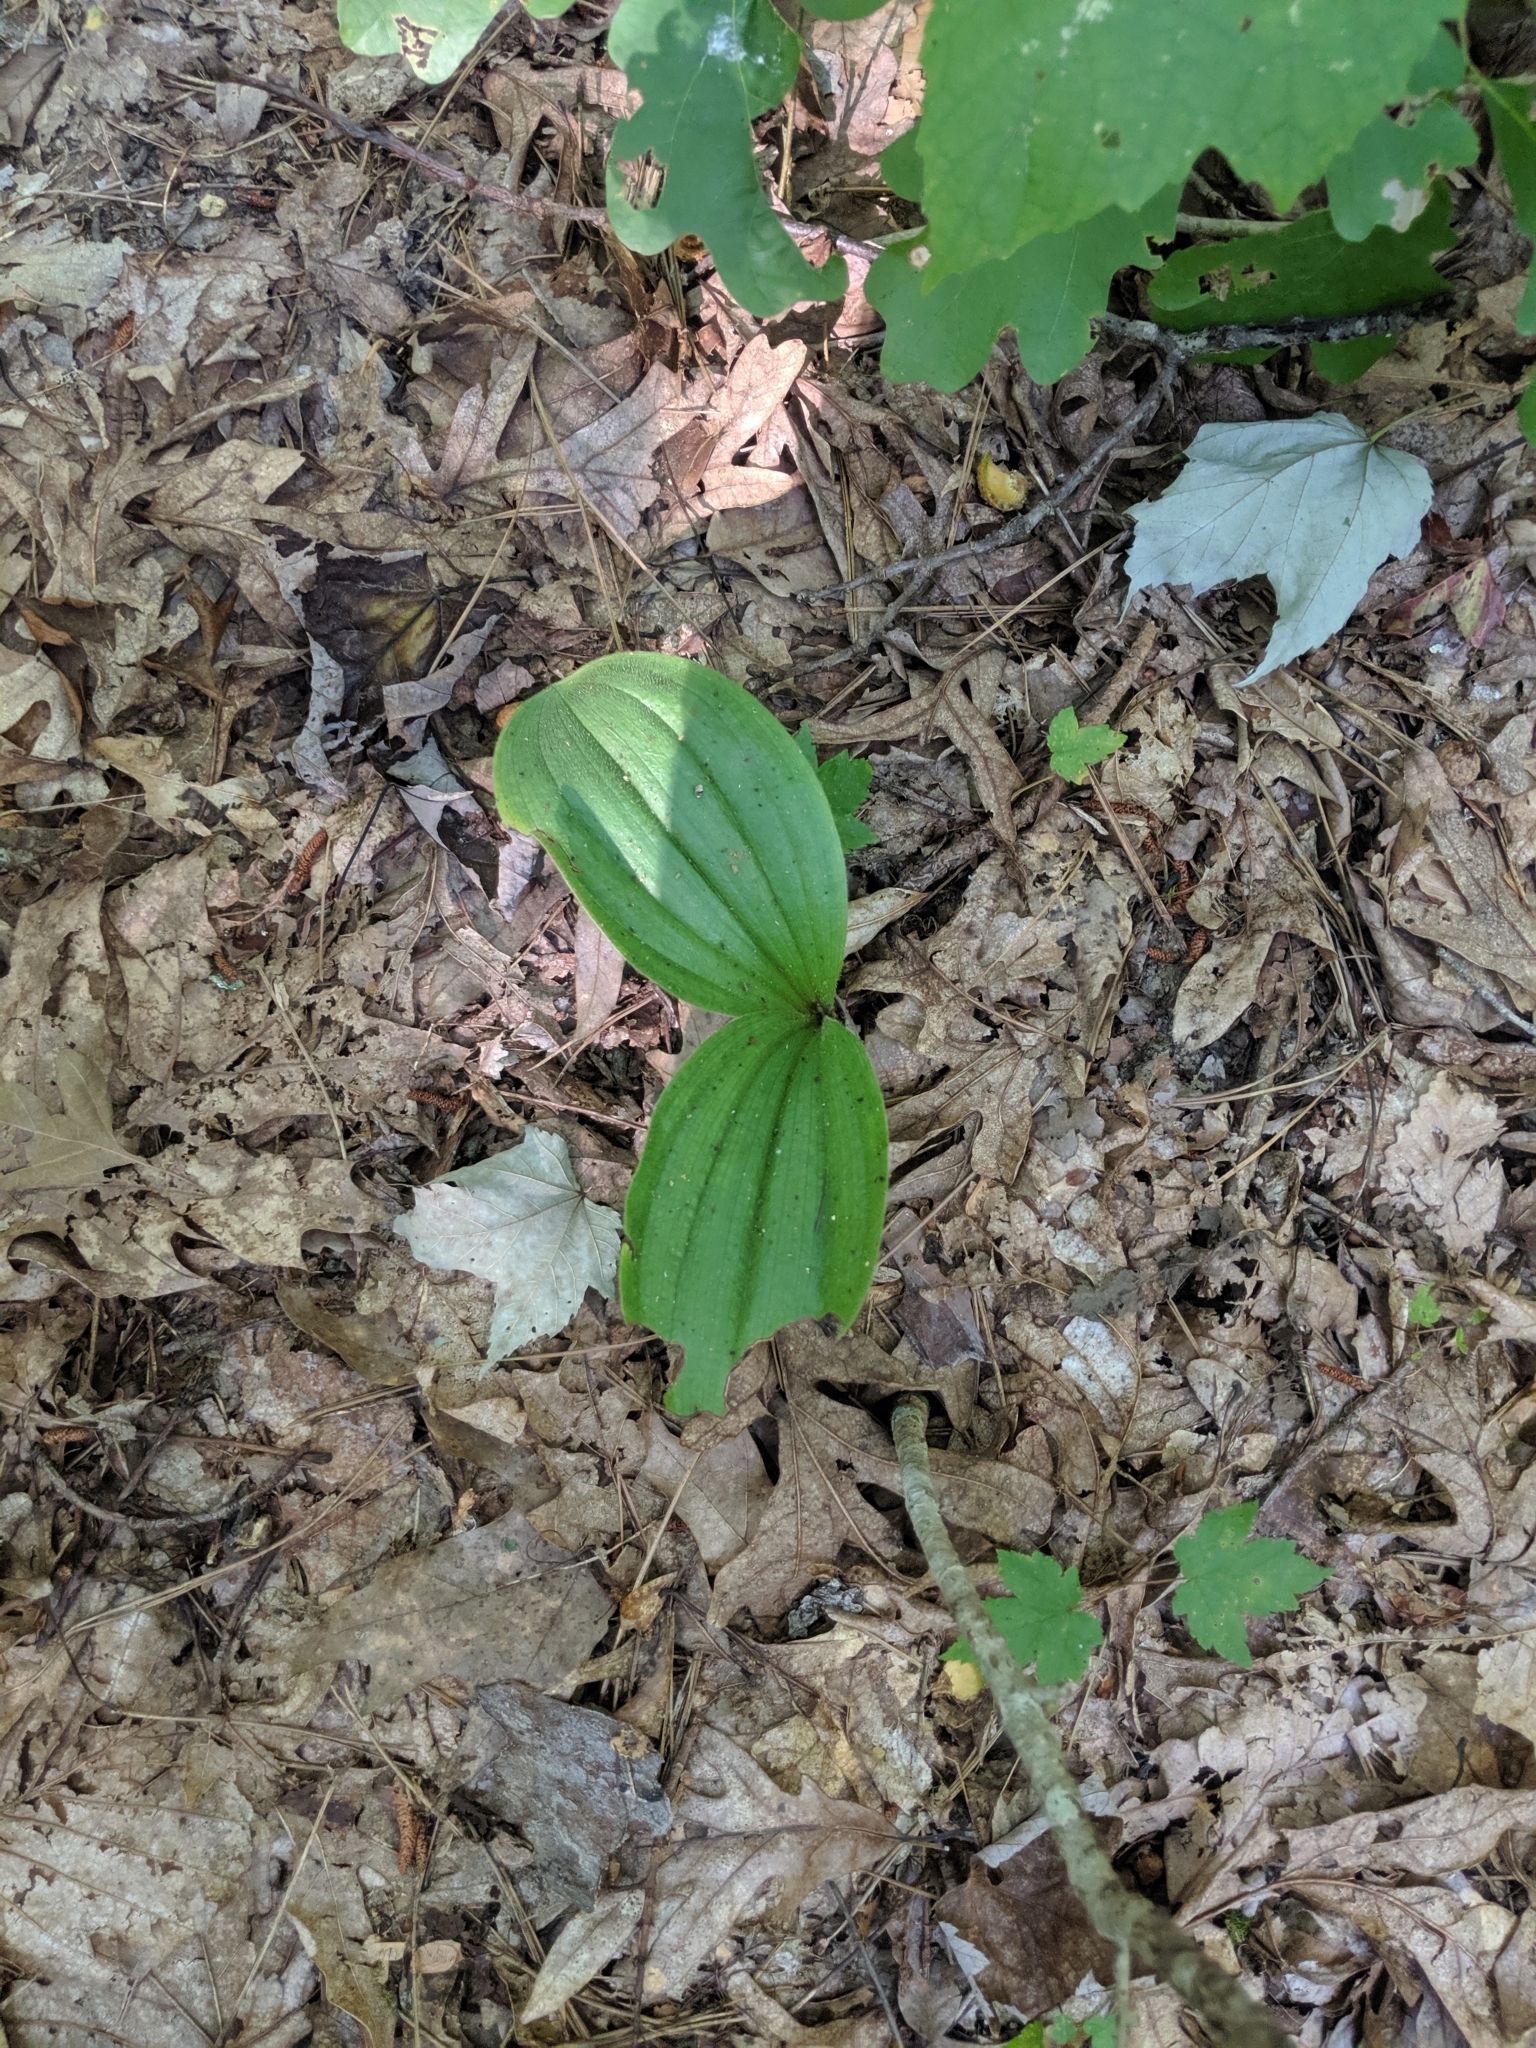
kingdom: Plantae
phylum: Tracheophyta
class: Liliopsida
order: Asparagales
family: Orchidaceae
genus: Cypripedium
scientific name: Cypripedium acaule
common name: Pink lady's-slipper
